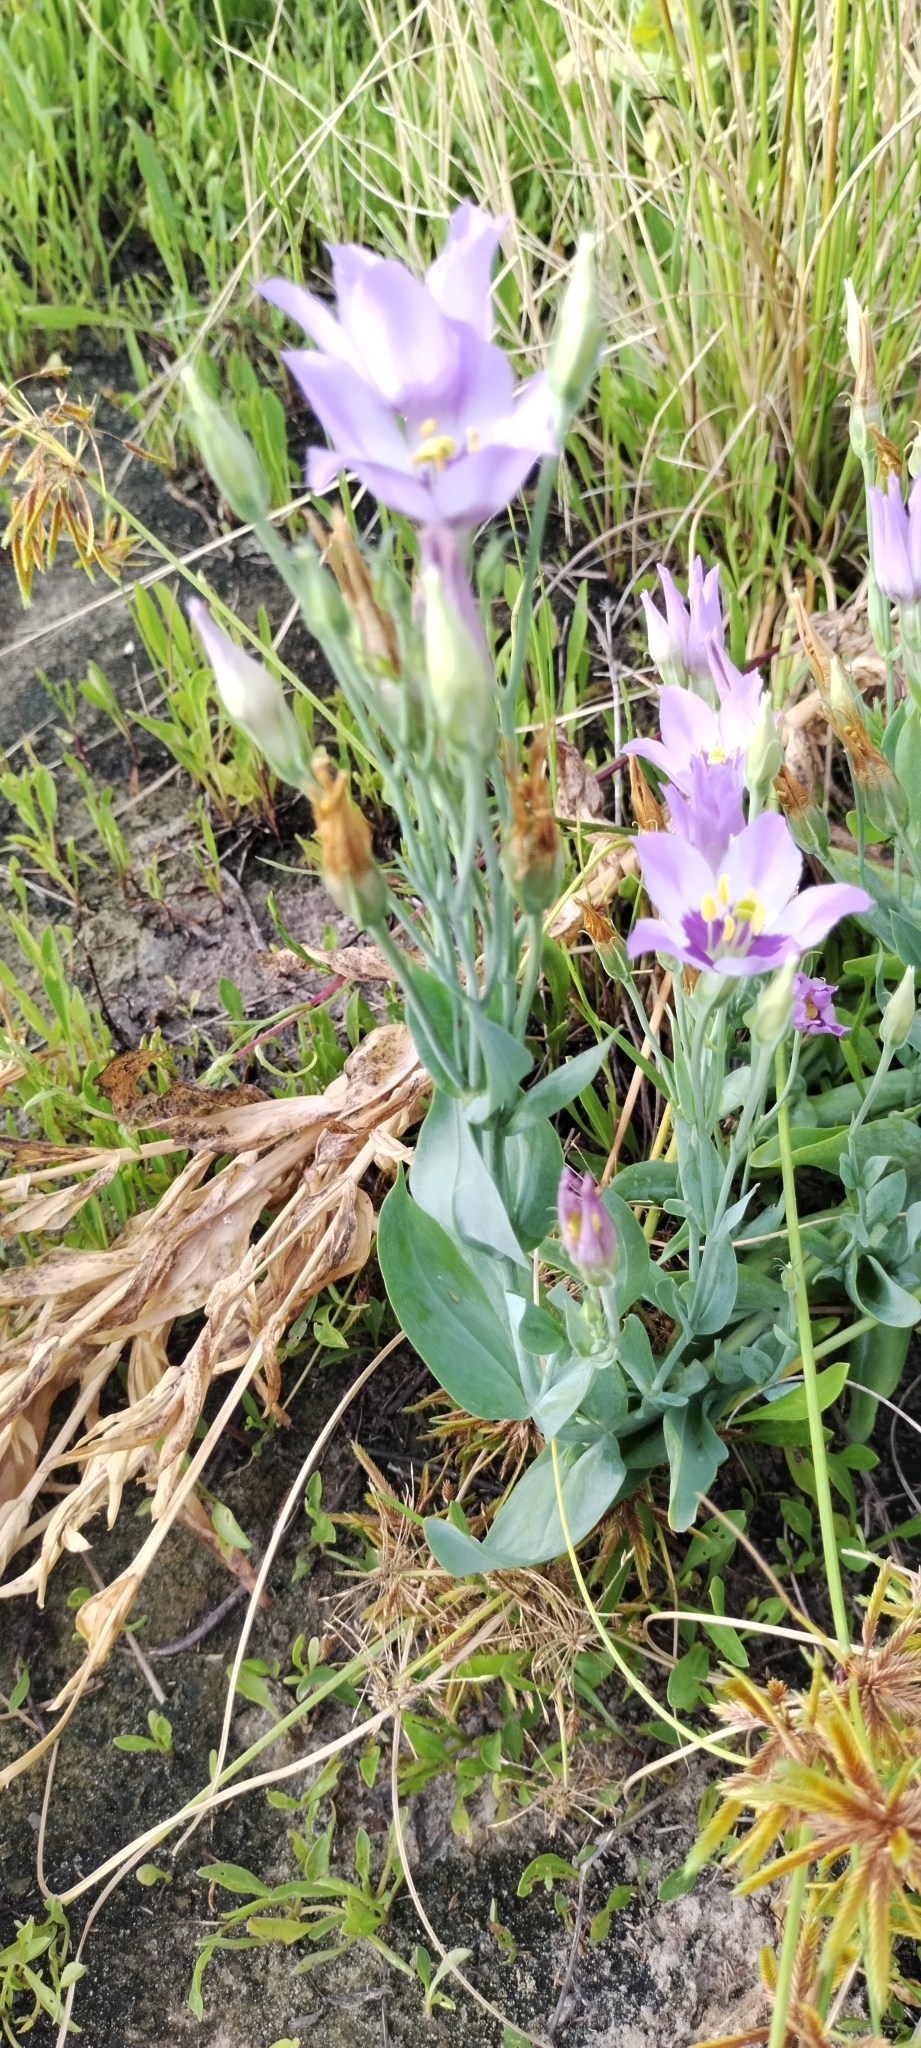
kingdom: Plantae
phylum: Tracheophyta
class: Magnoliopsida
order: Gentianales
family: Gentianaceae
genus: Eustoma
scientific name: Eustoma exaltatum
